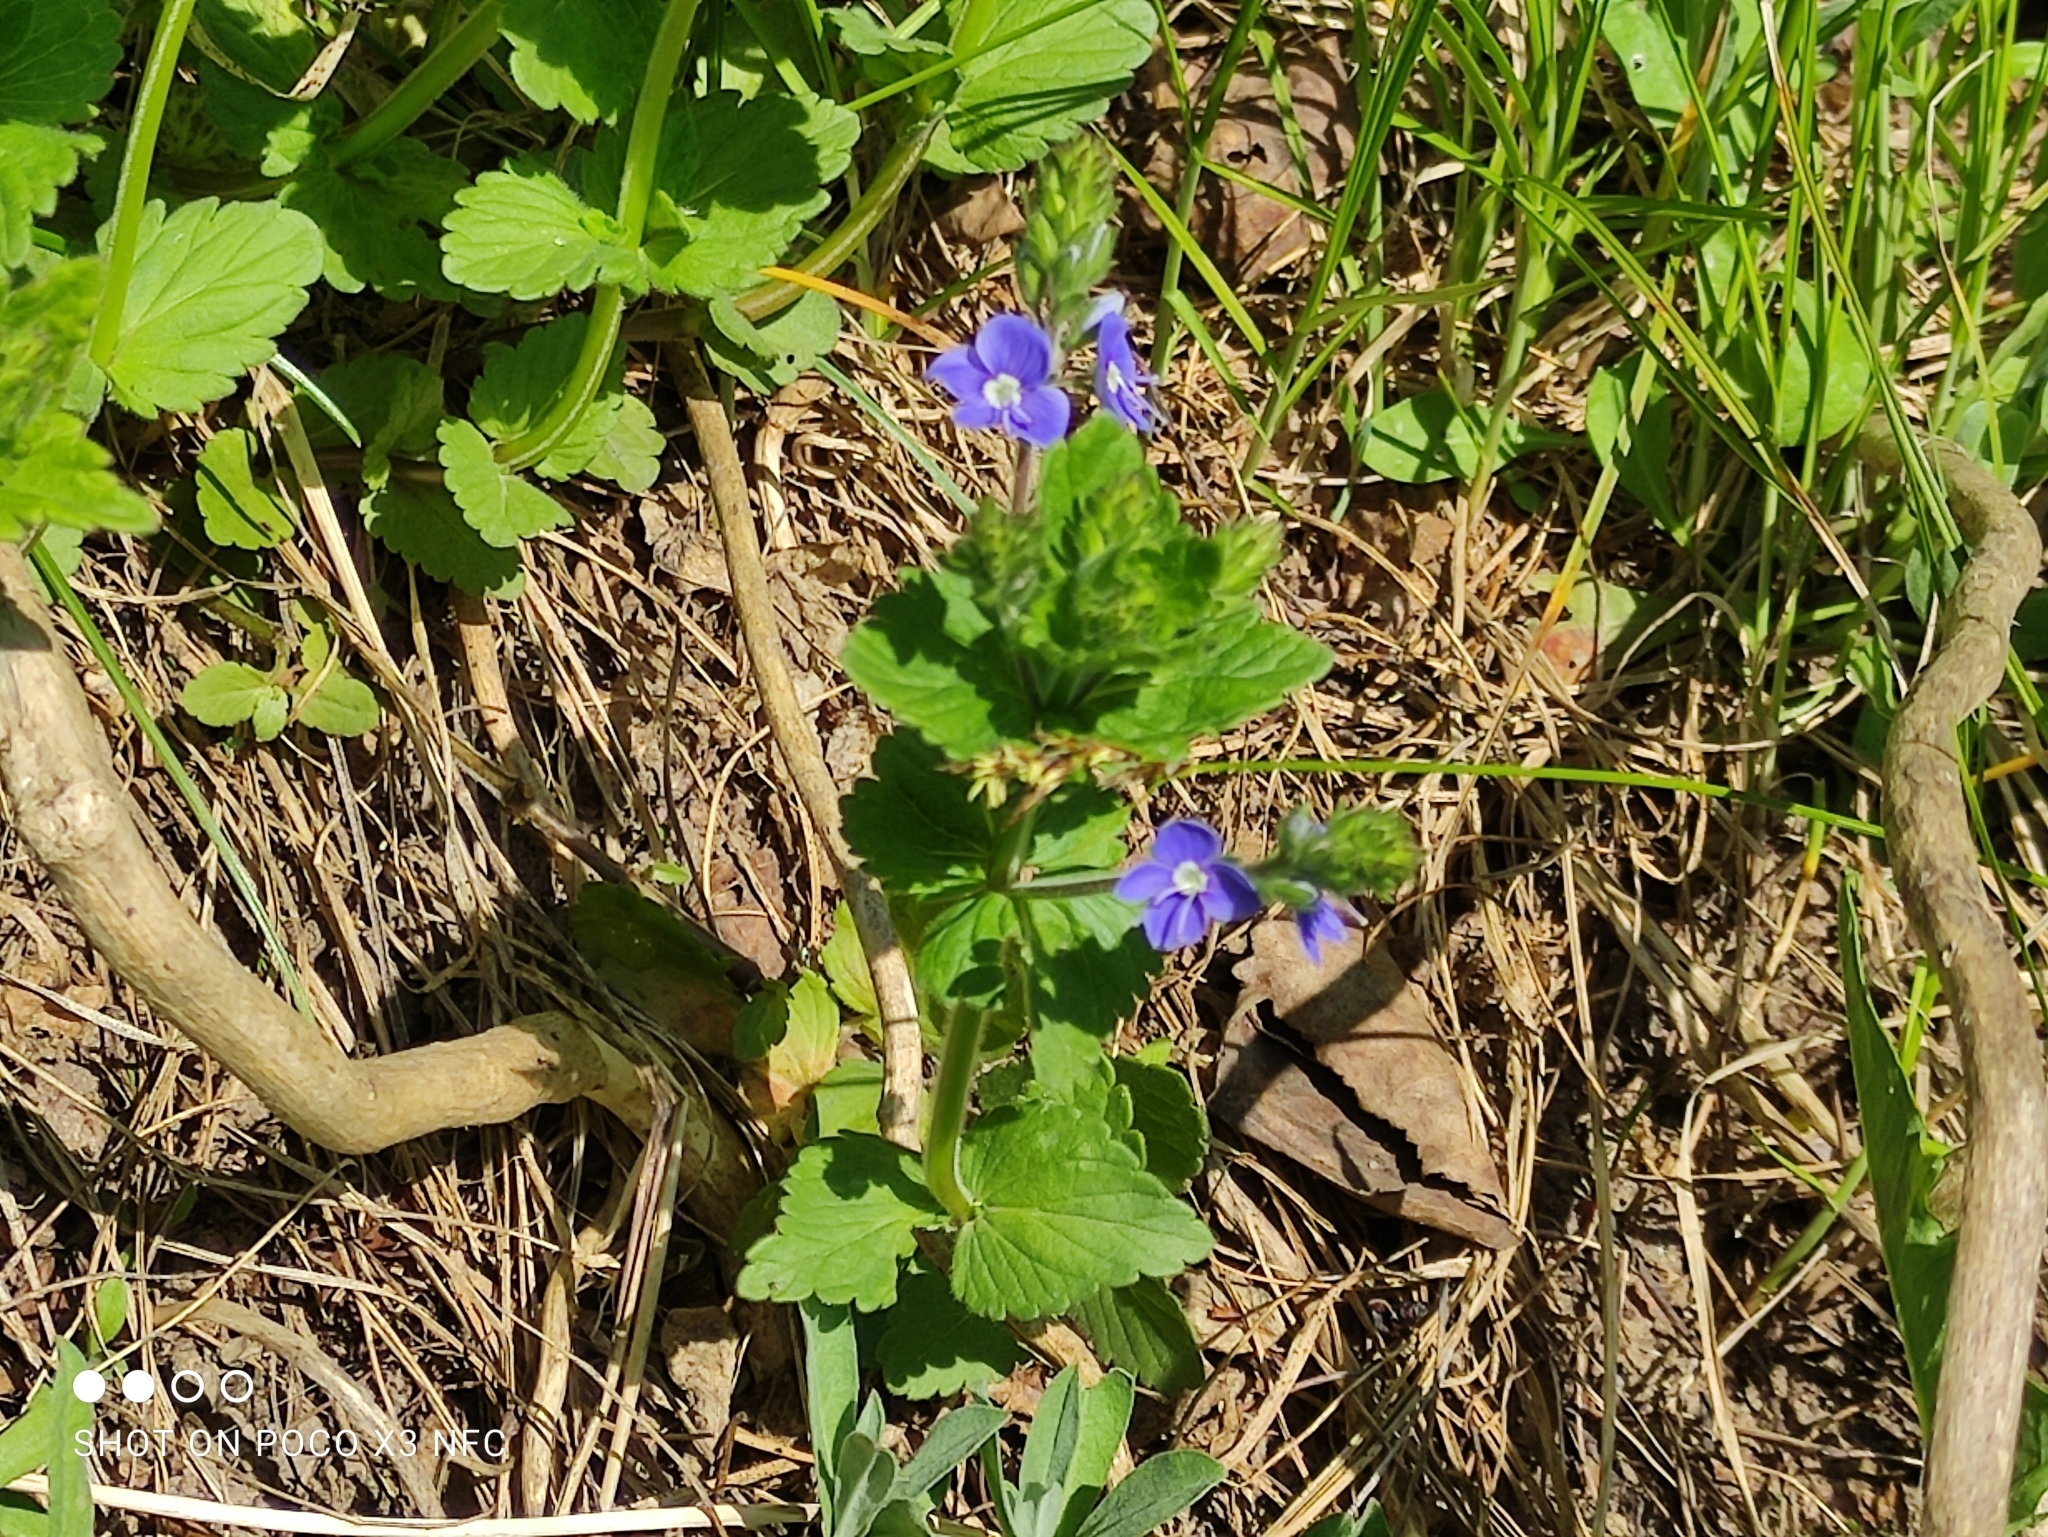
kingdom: Plantae
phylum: Tracheophyta
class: Magnoliopsida
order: Lamiales
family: Plantaginaceae
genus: Veronica
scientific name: Veronica chamaedrys
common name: Germander speedwell
